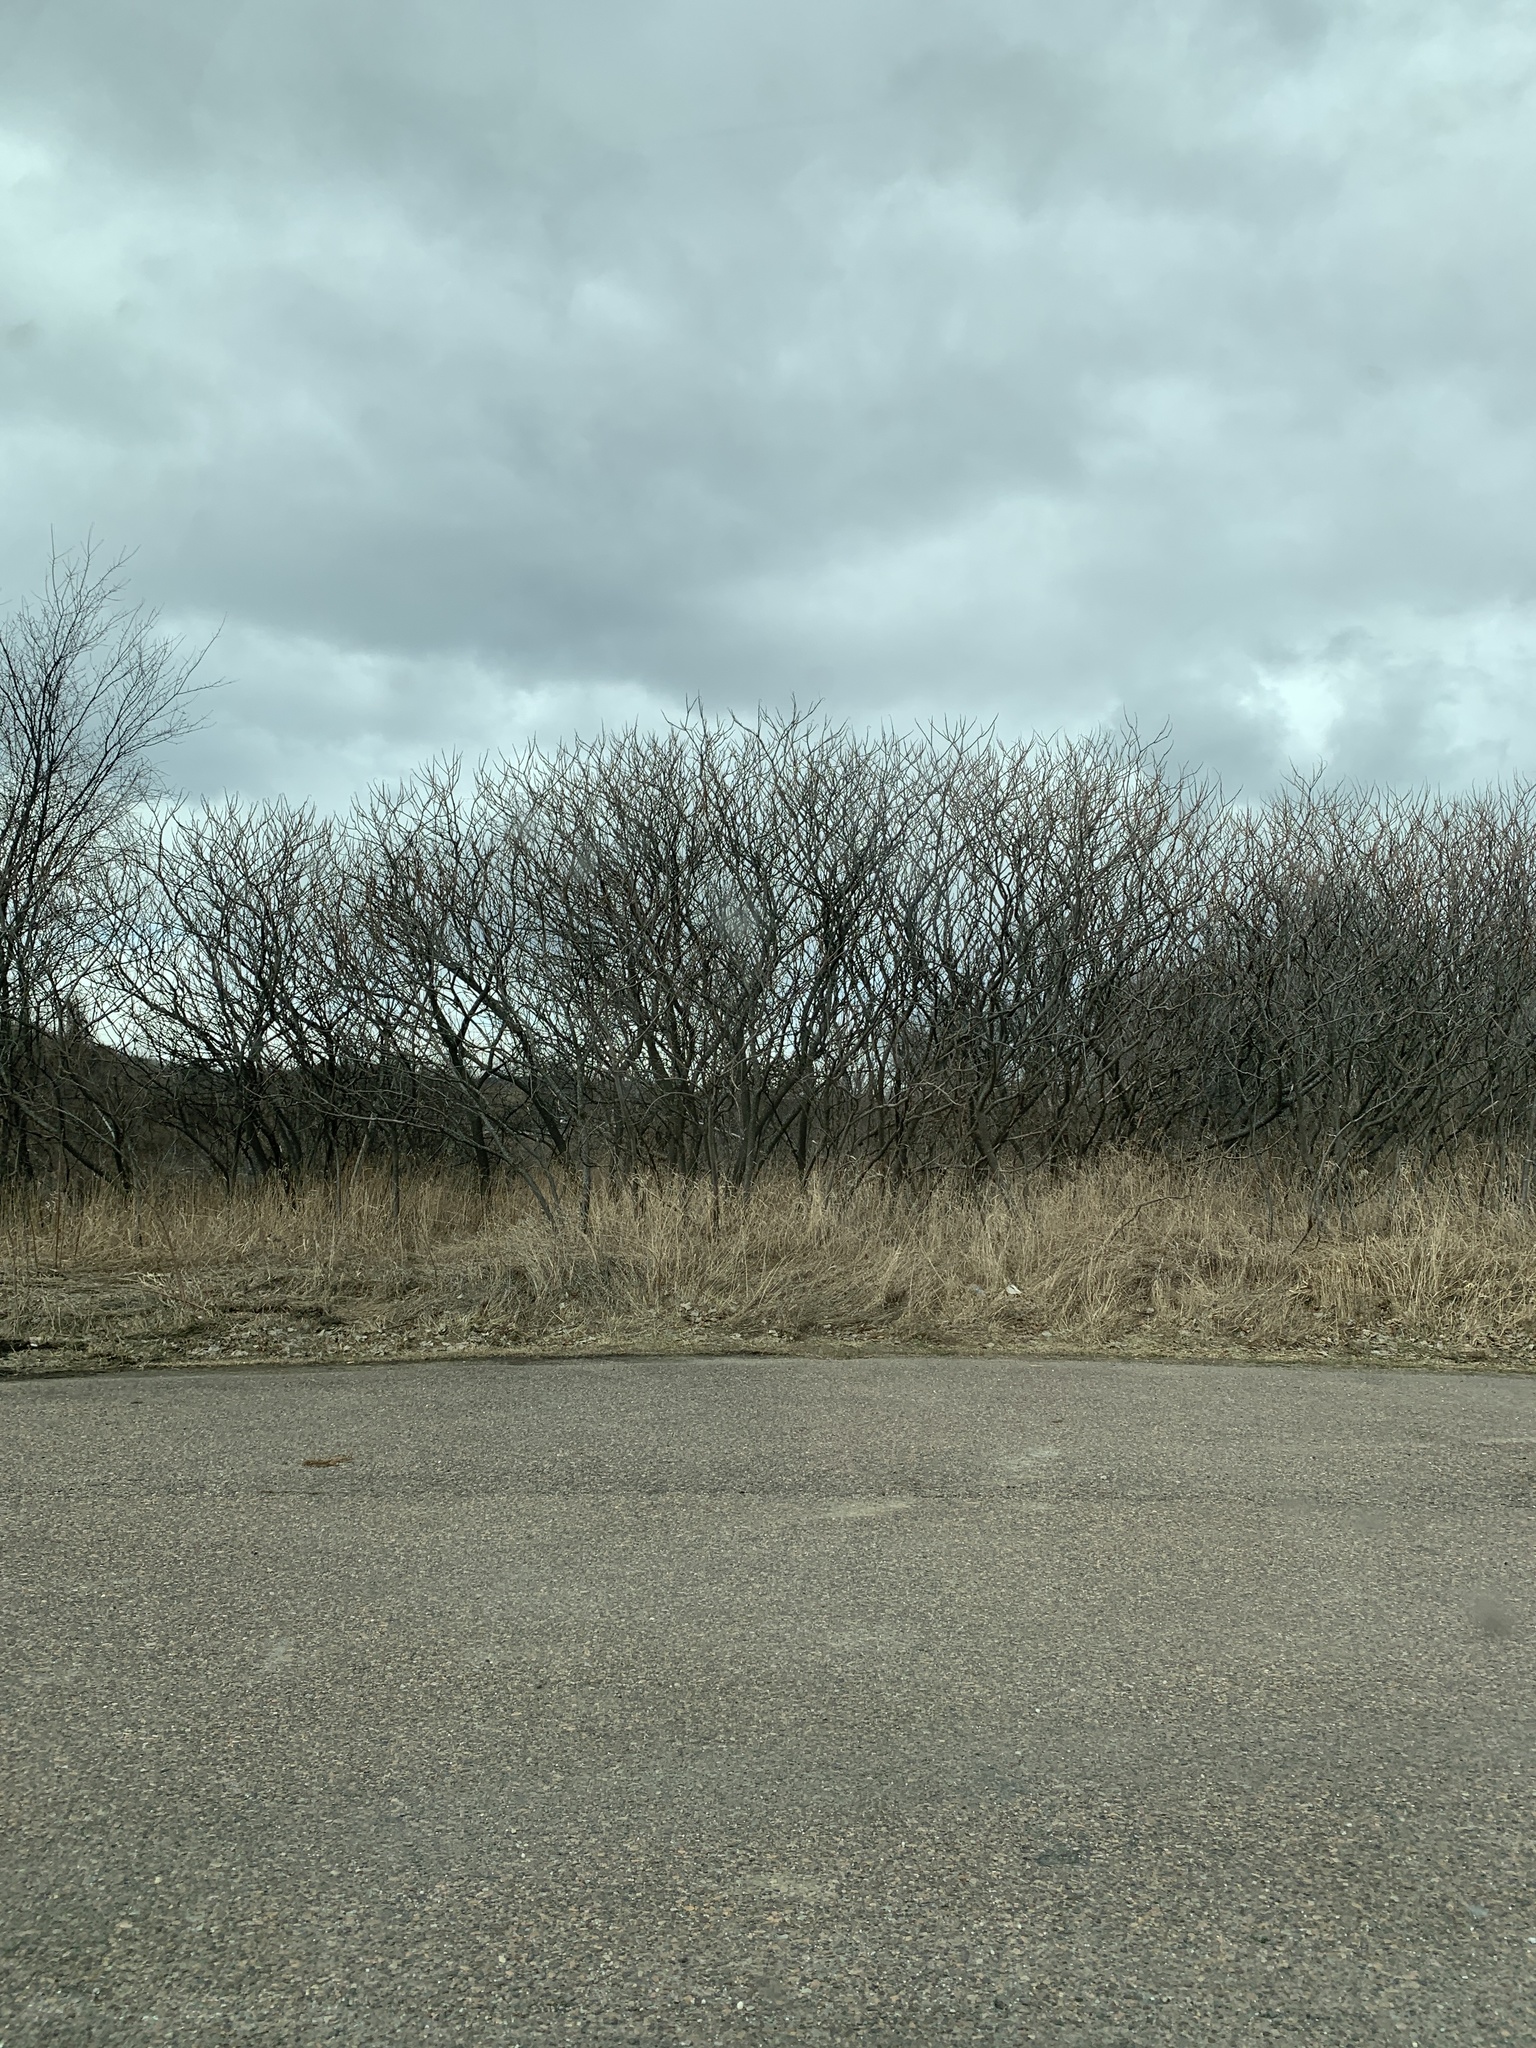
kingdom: Plantae
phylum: Tracheophyta
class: Magnoliopsida
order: Sapindales
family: Anacardiaceae
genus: Rhus
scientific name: Rhus typhina
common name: Staghorn sumac
